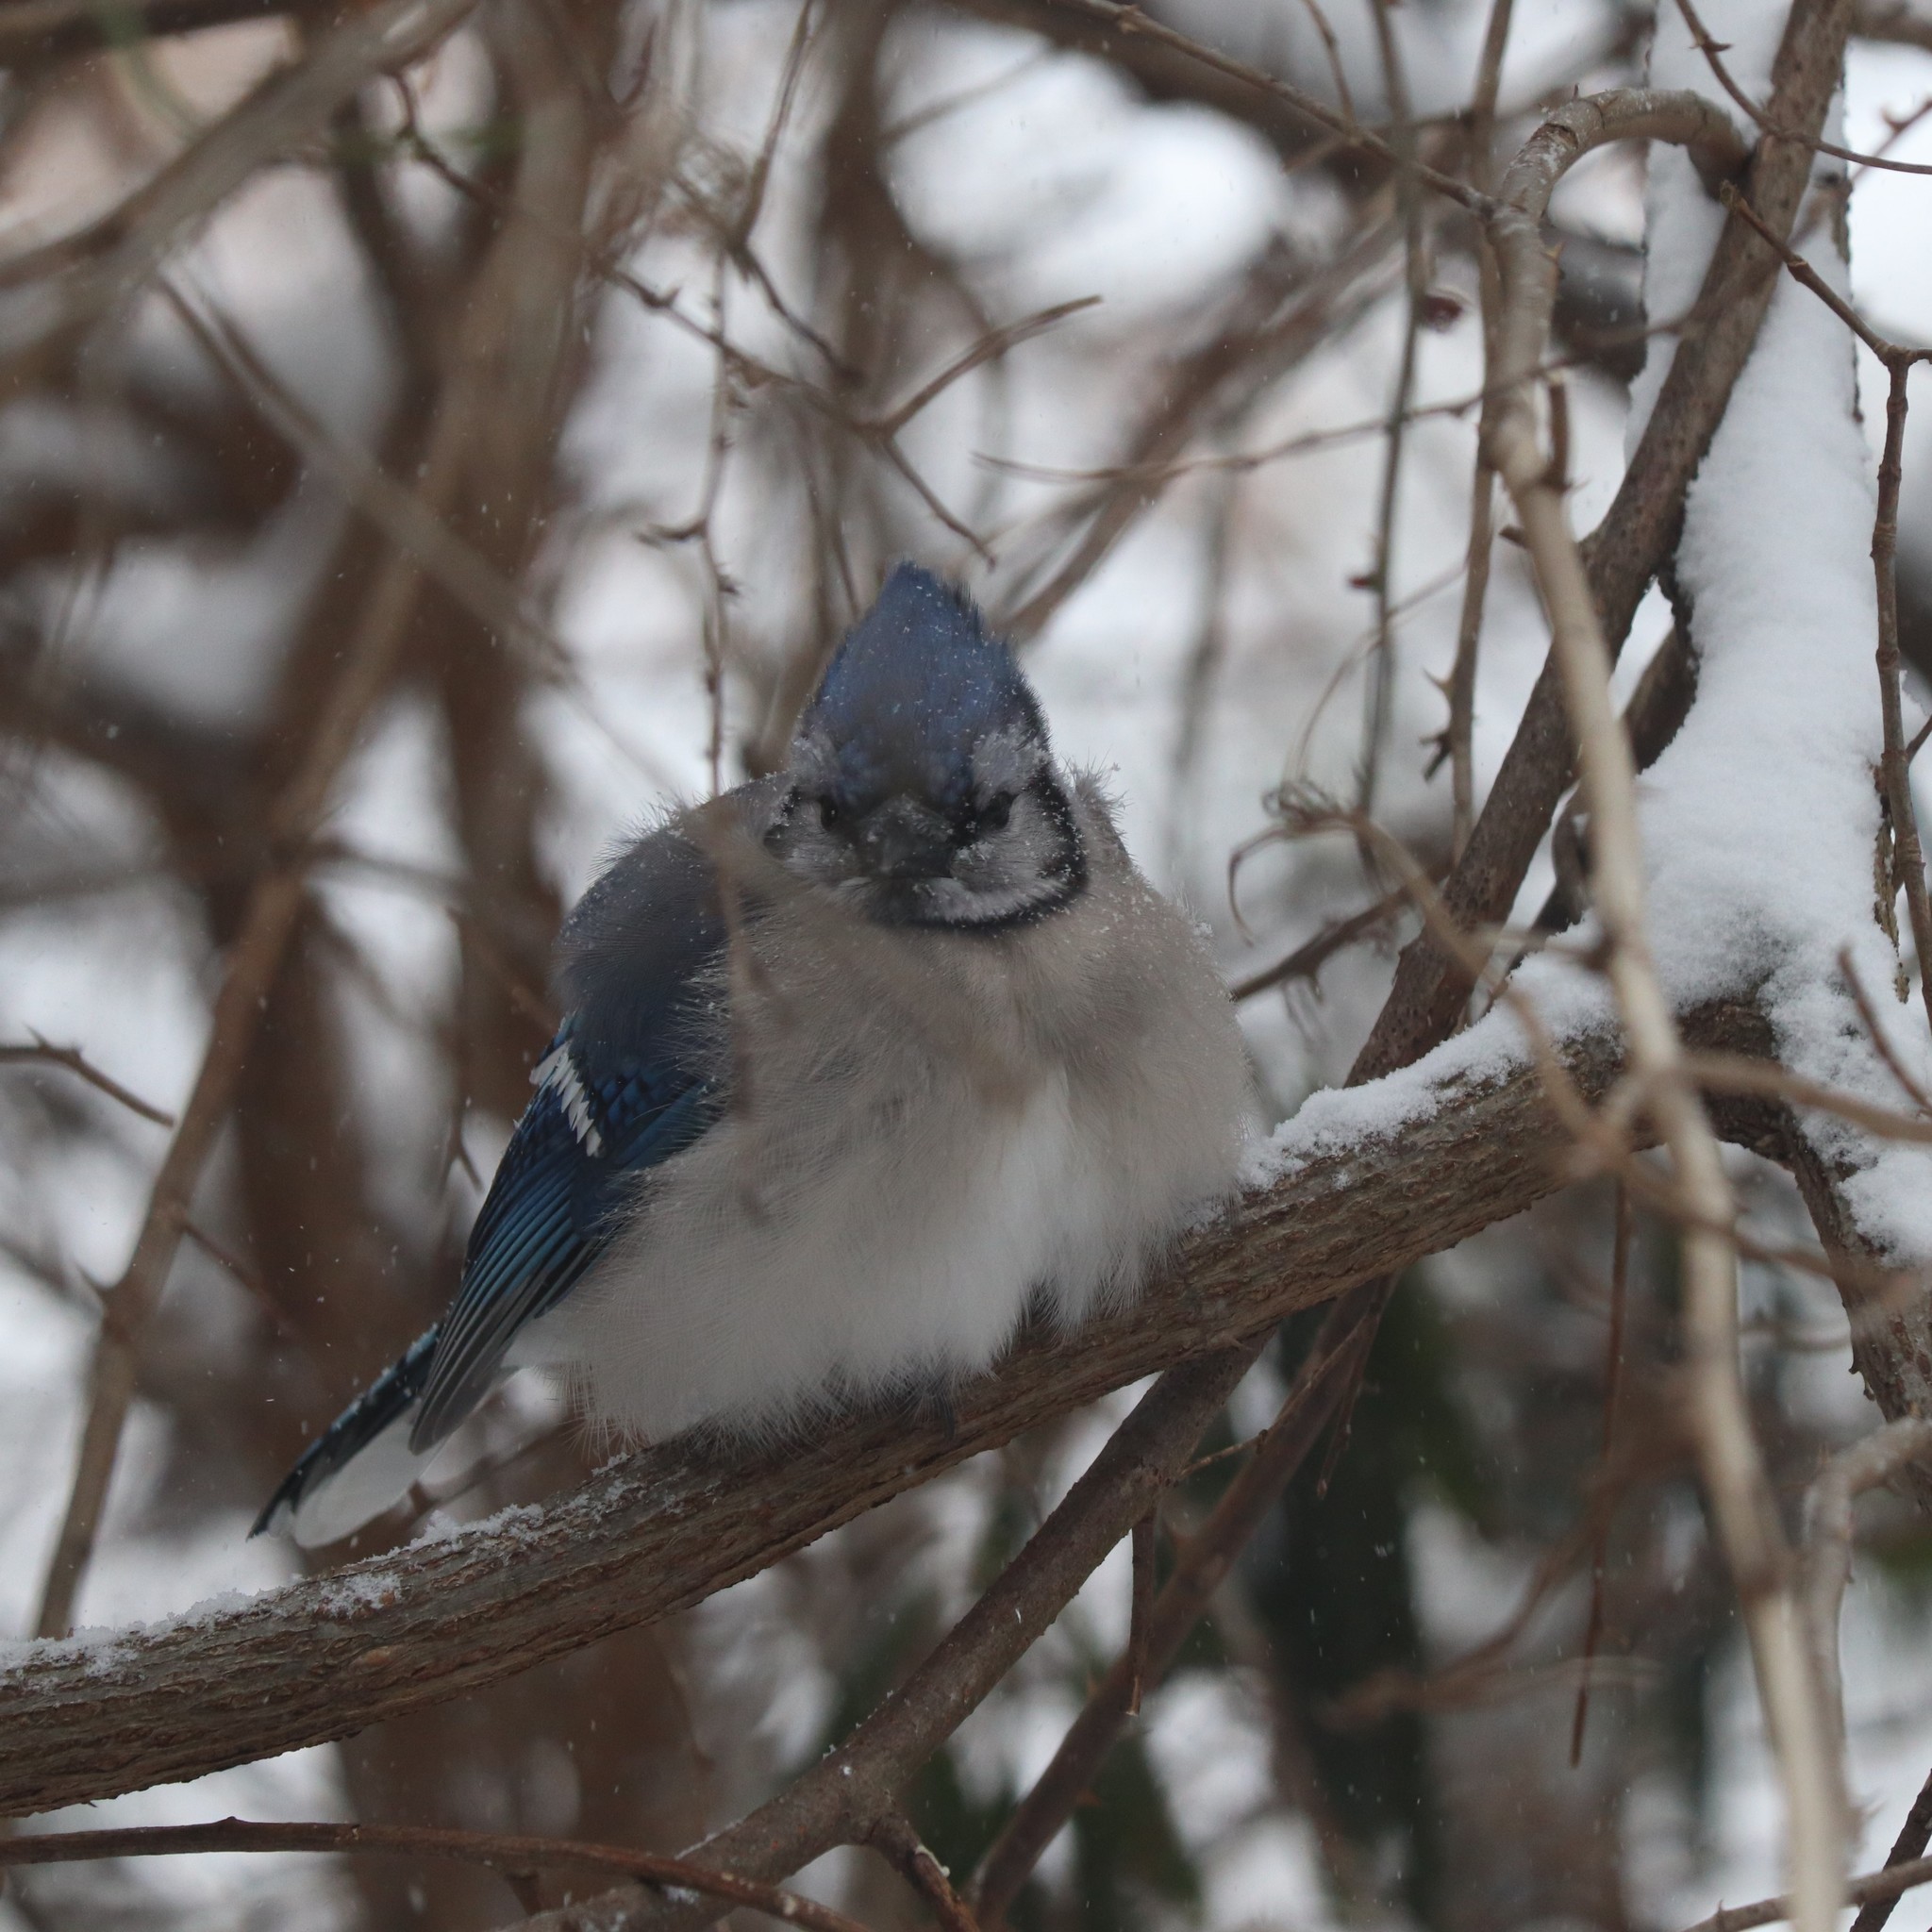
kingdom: Animalia
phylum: Chordata
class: Aves
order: Passeriformes
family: Corvidae
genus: Cyanocitta
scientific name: Cyanocitta cristata
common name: Blue jay
